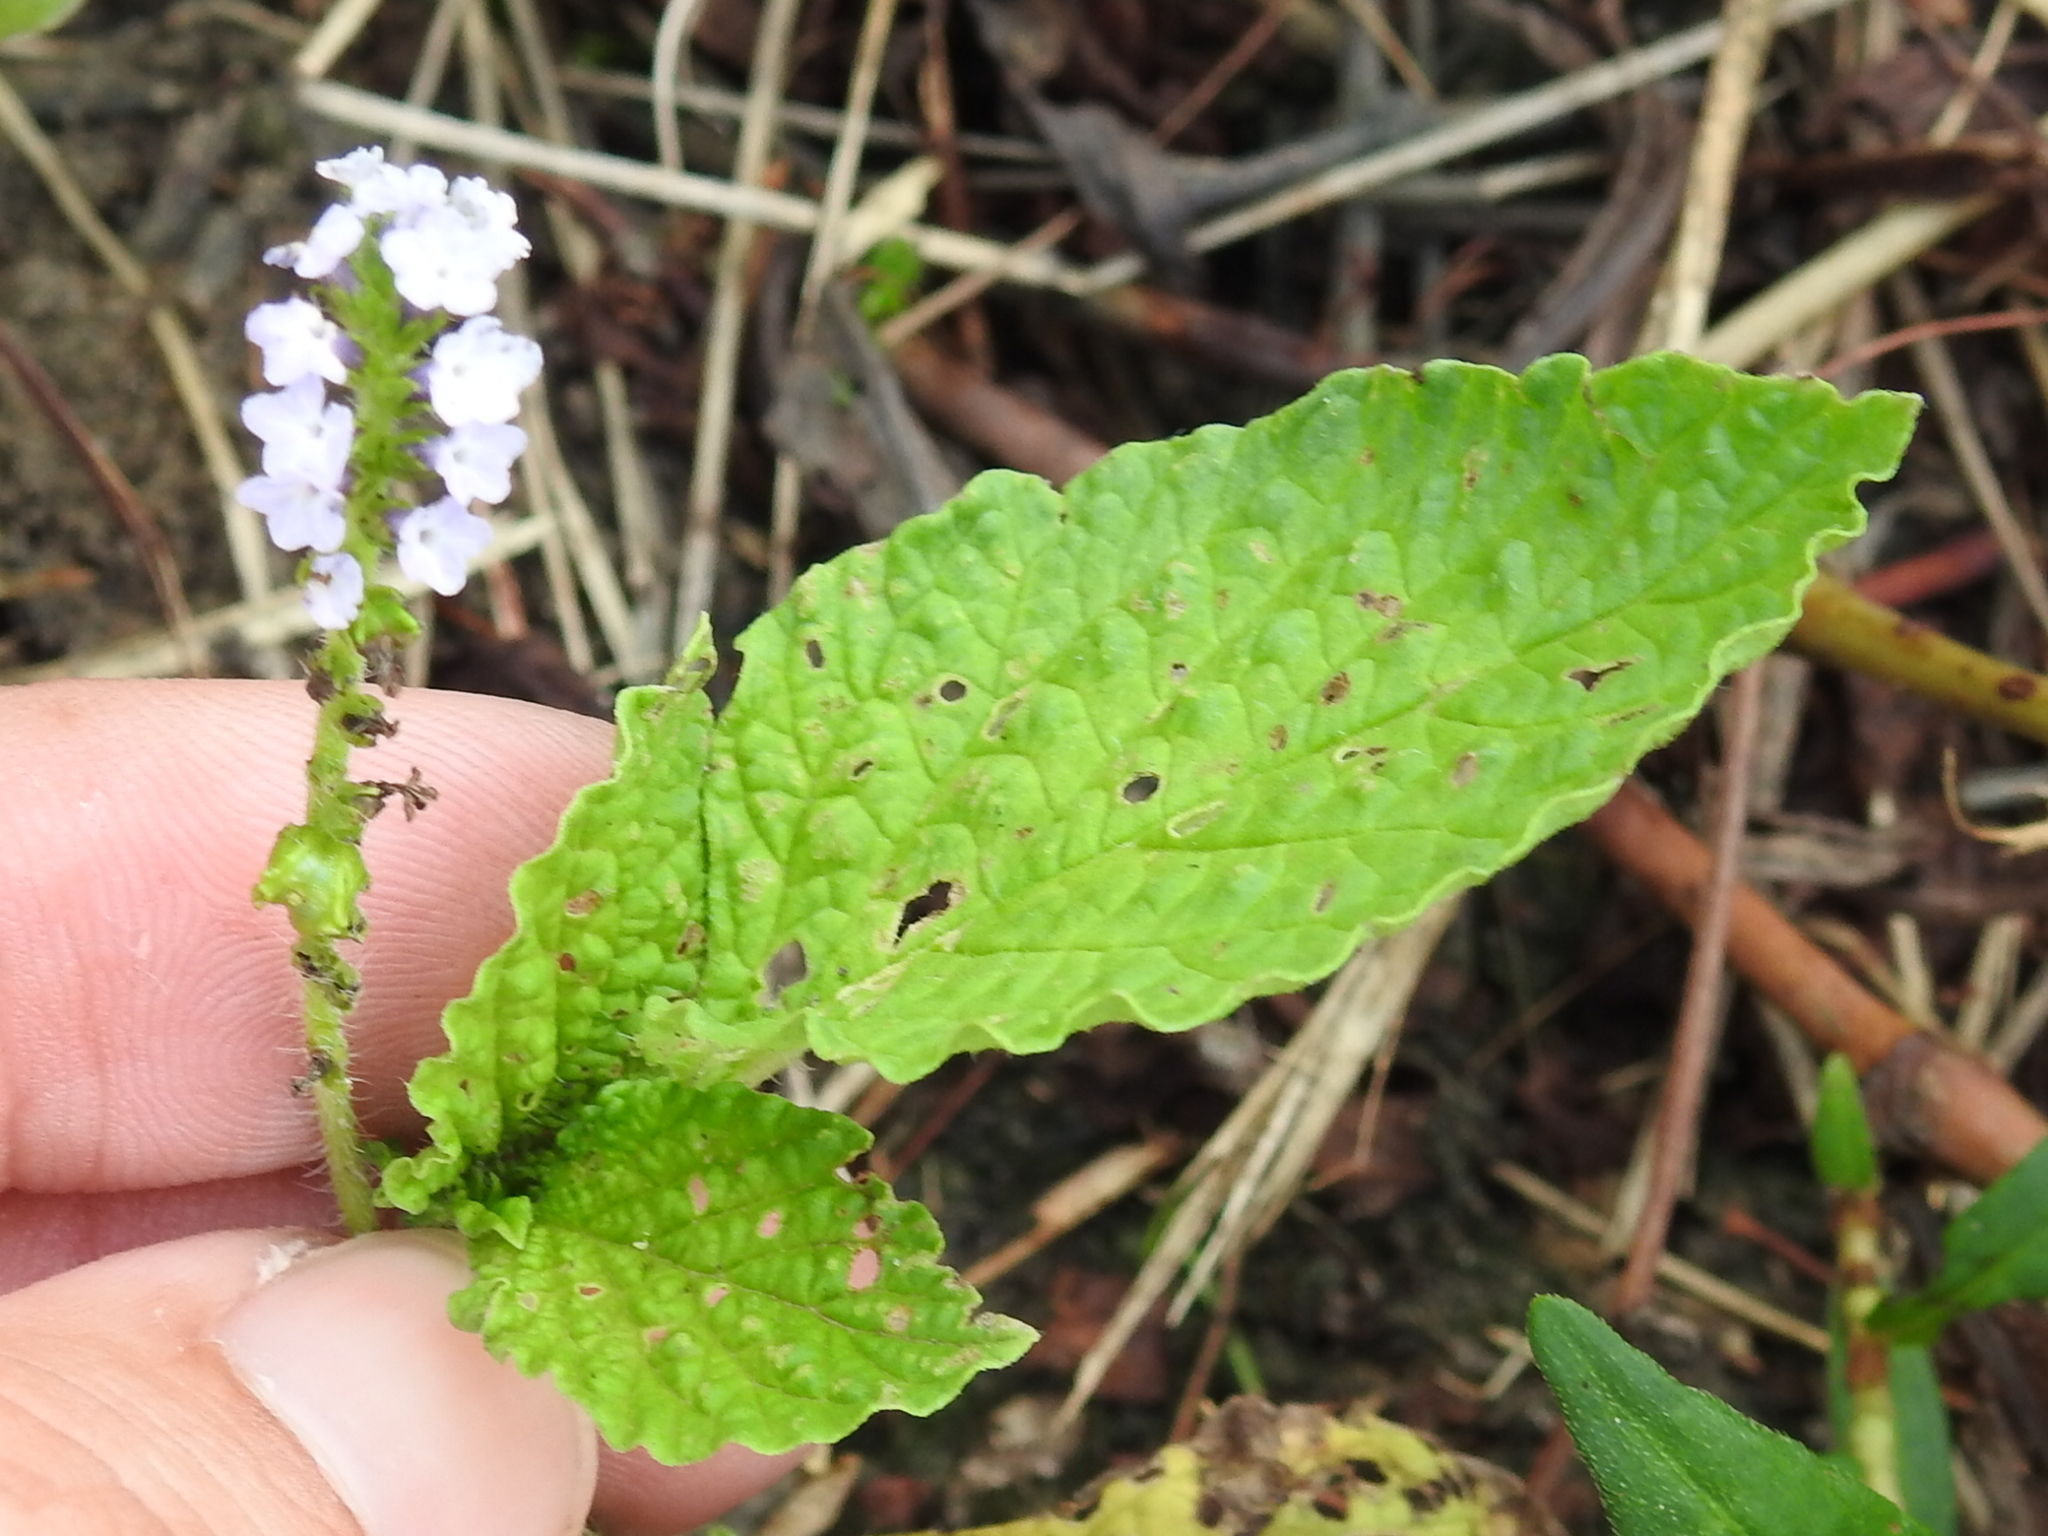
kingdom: Plantae
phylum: Tracheophyta
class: Magnoliopsida
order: Boraginales
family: Heliotropiaceae
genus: Heliotropium
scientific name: Heliotropium indicum
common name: Indian heliotrope
